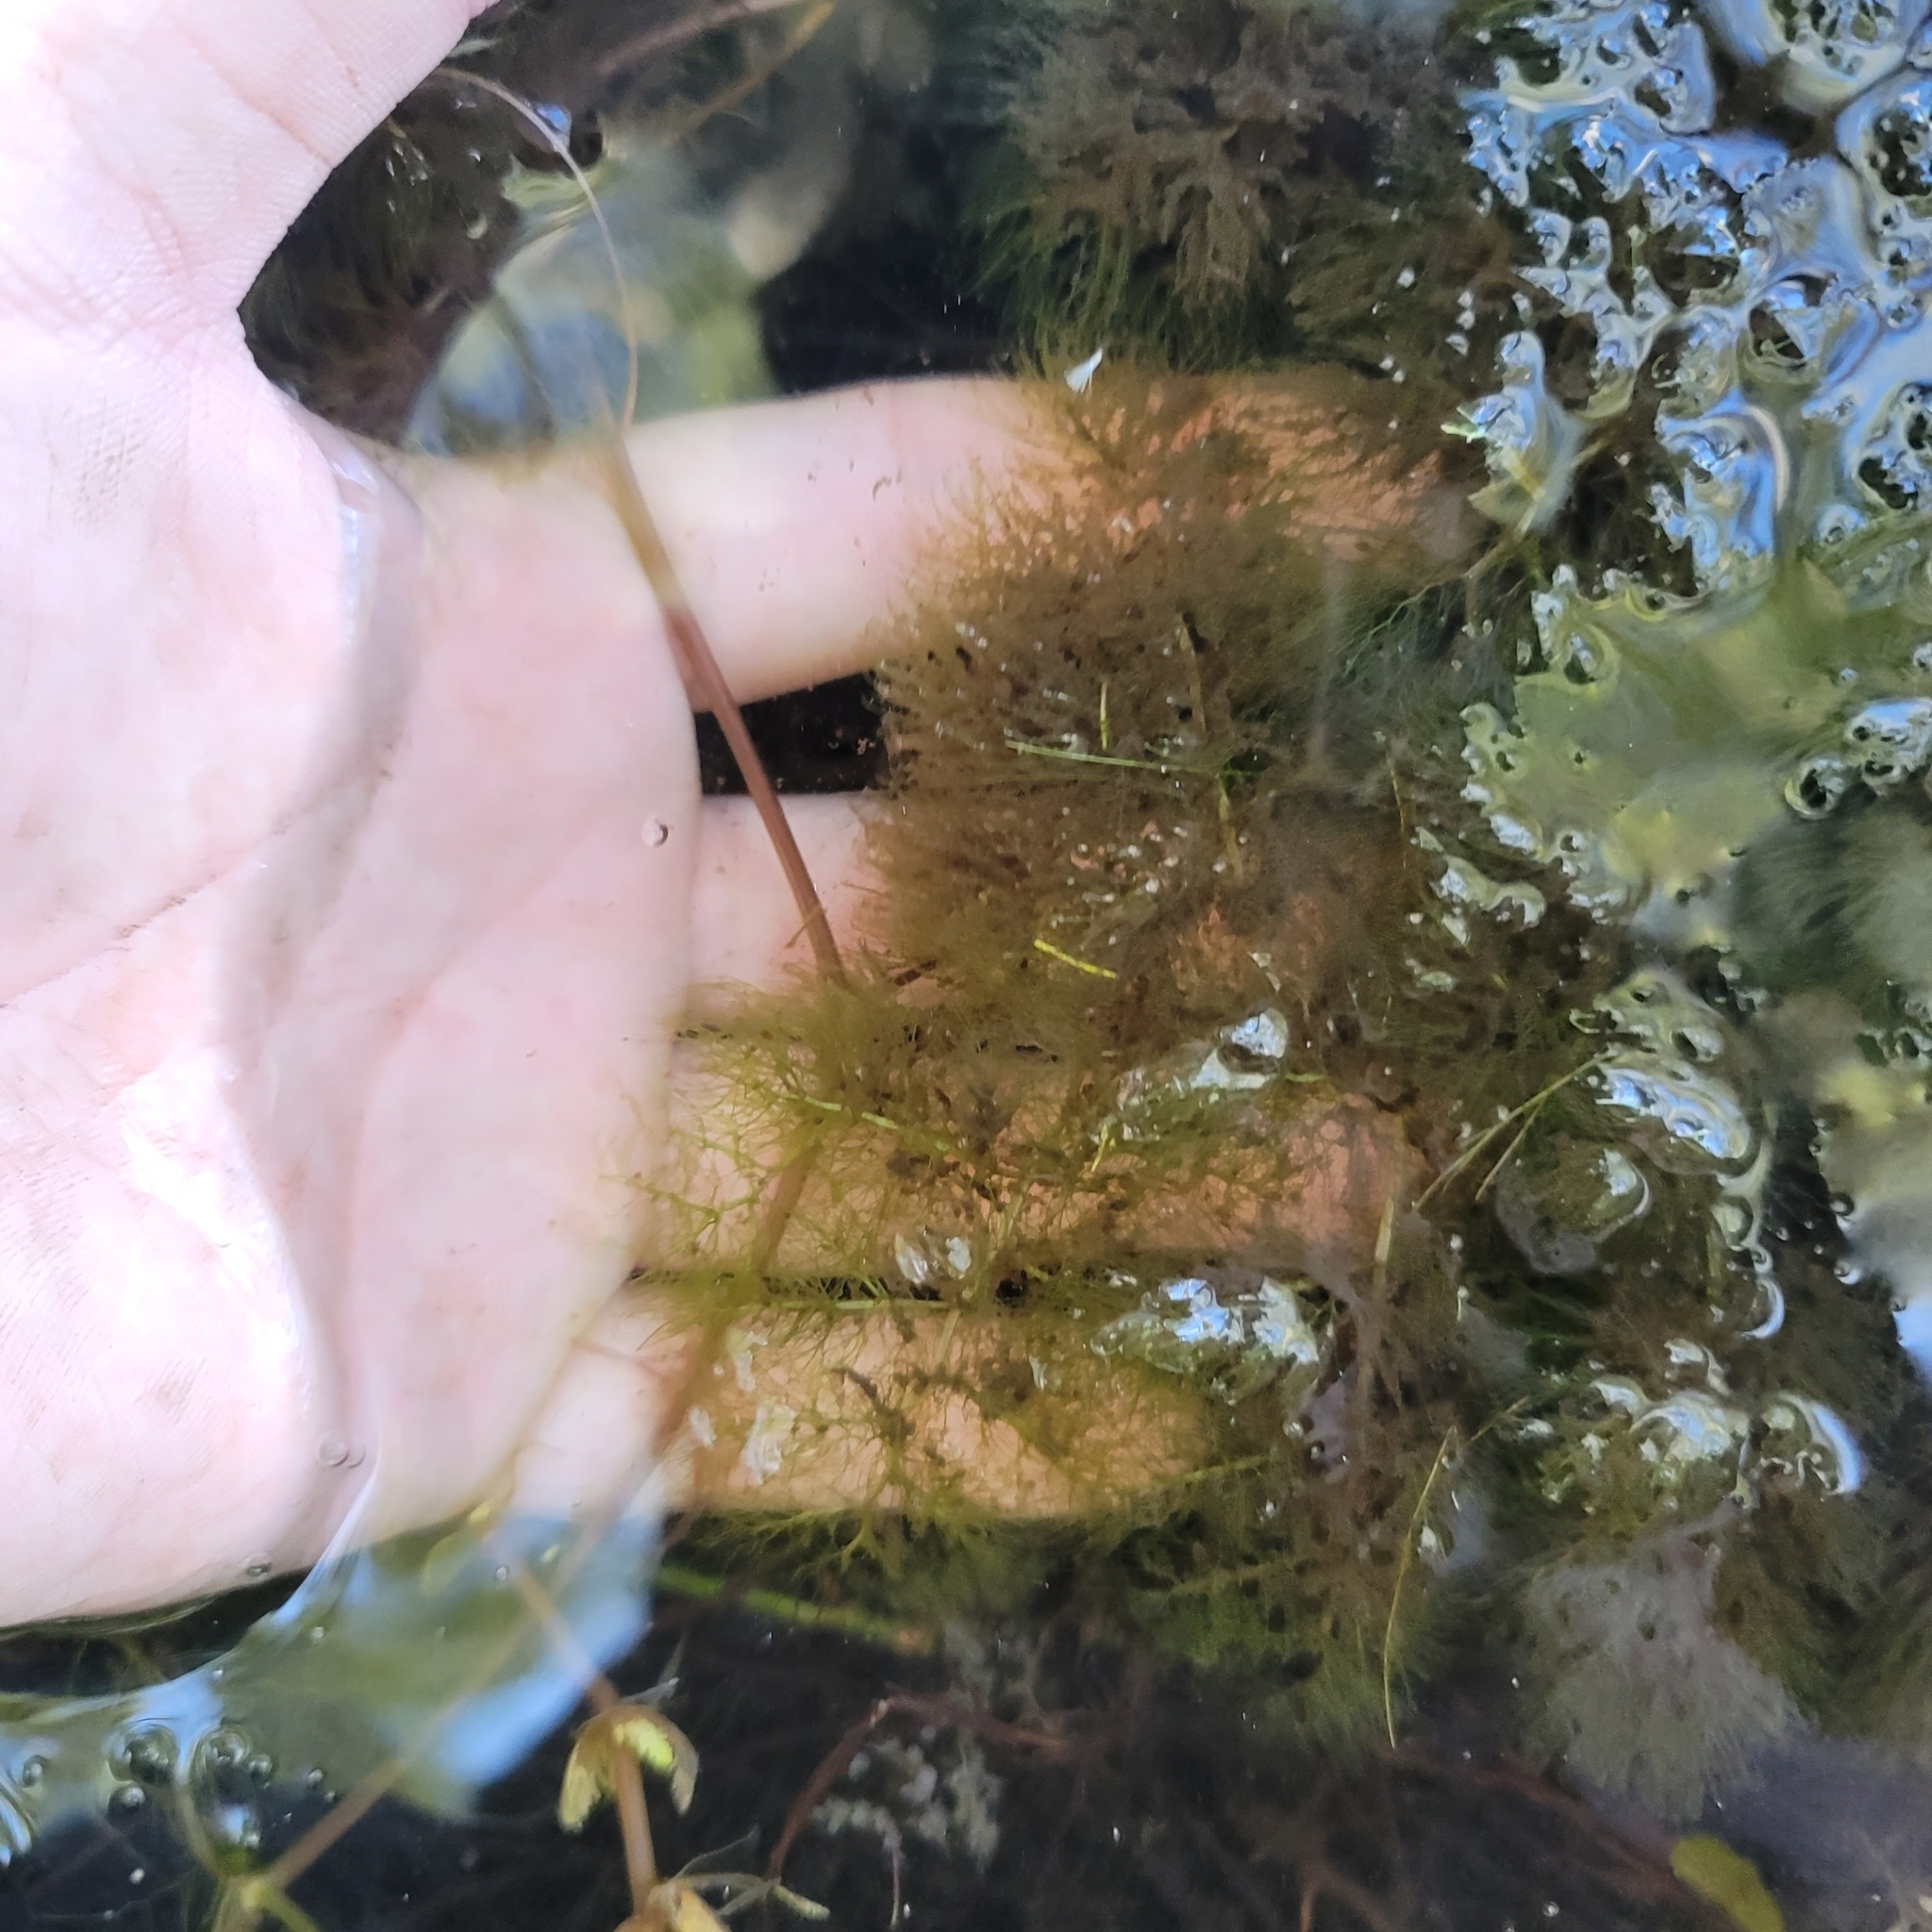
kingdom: Plantae
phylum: Tracheophyta
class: Magnoliopsida
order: Lamiales
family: Lentibulariaceae
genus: Utricularia
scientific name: Utricularia foliosa
